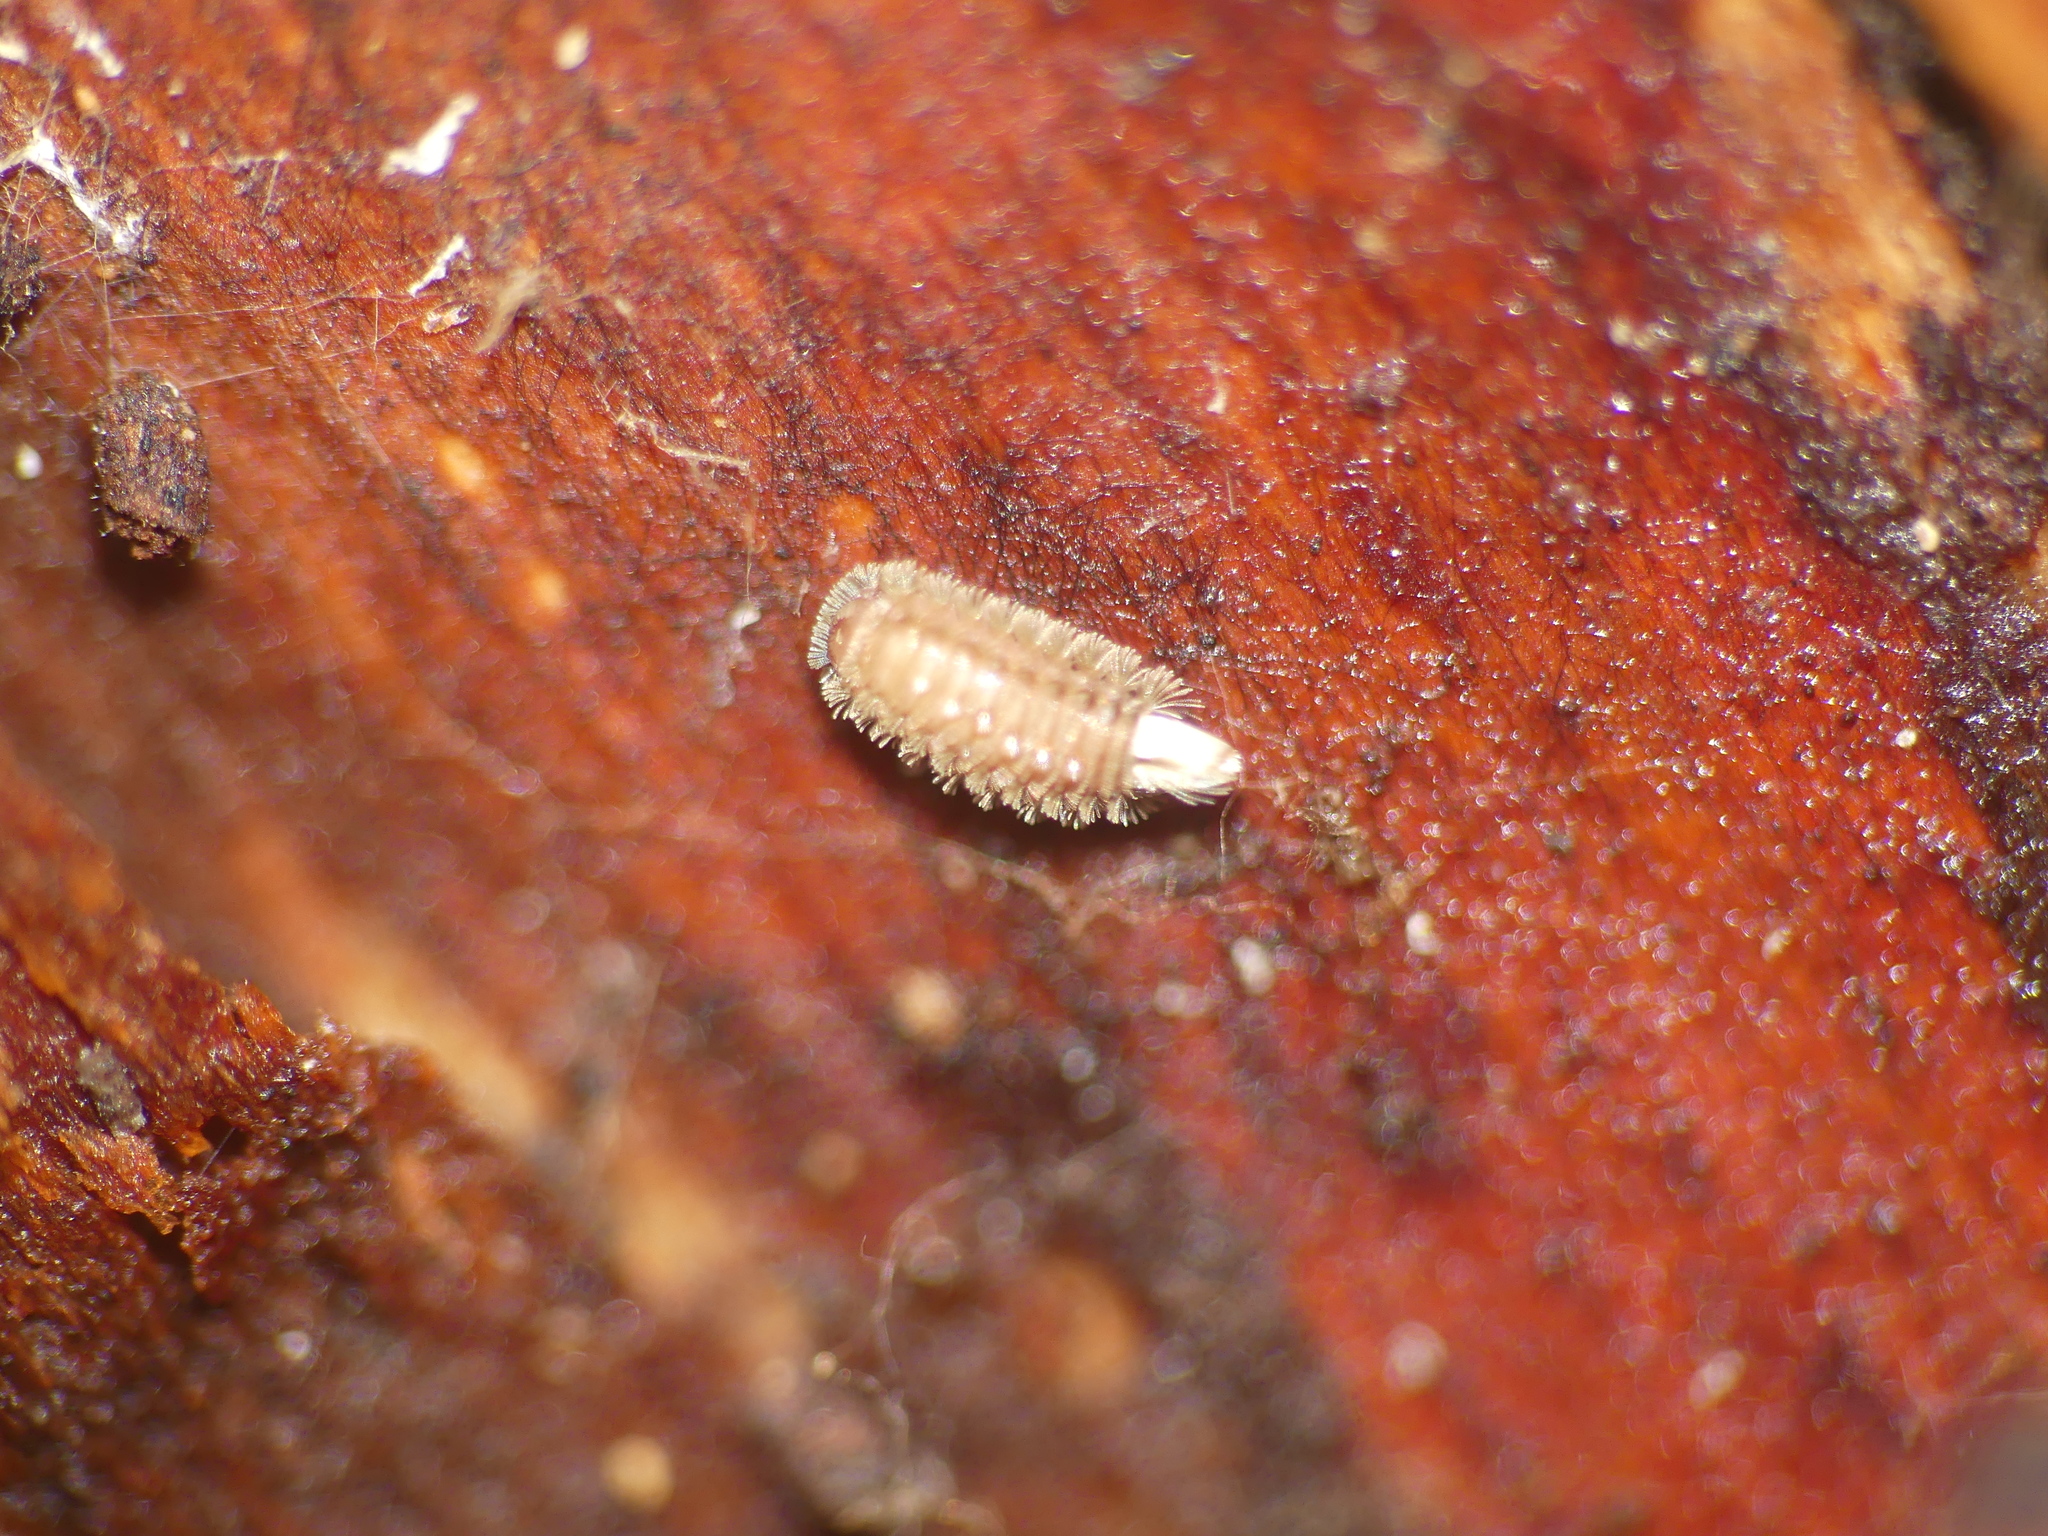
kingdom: Animalia
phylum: Arthropoda
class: Diplopoda
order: Polyxenida
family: Polyxenidae
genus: Polyxenus
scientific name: Polyxenus lagurus
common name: Bristly millipede
